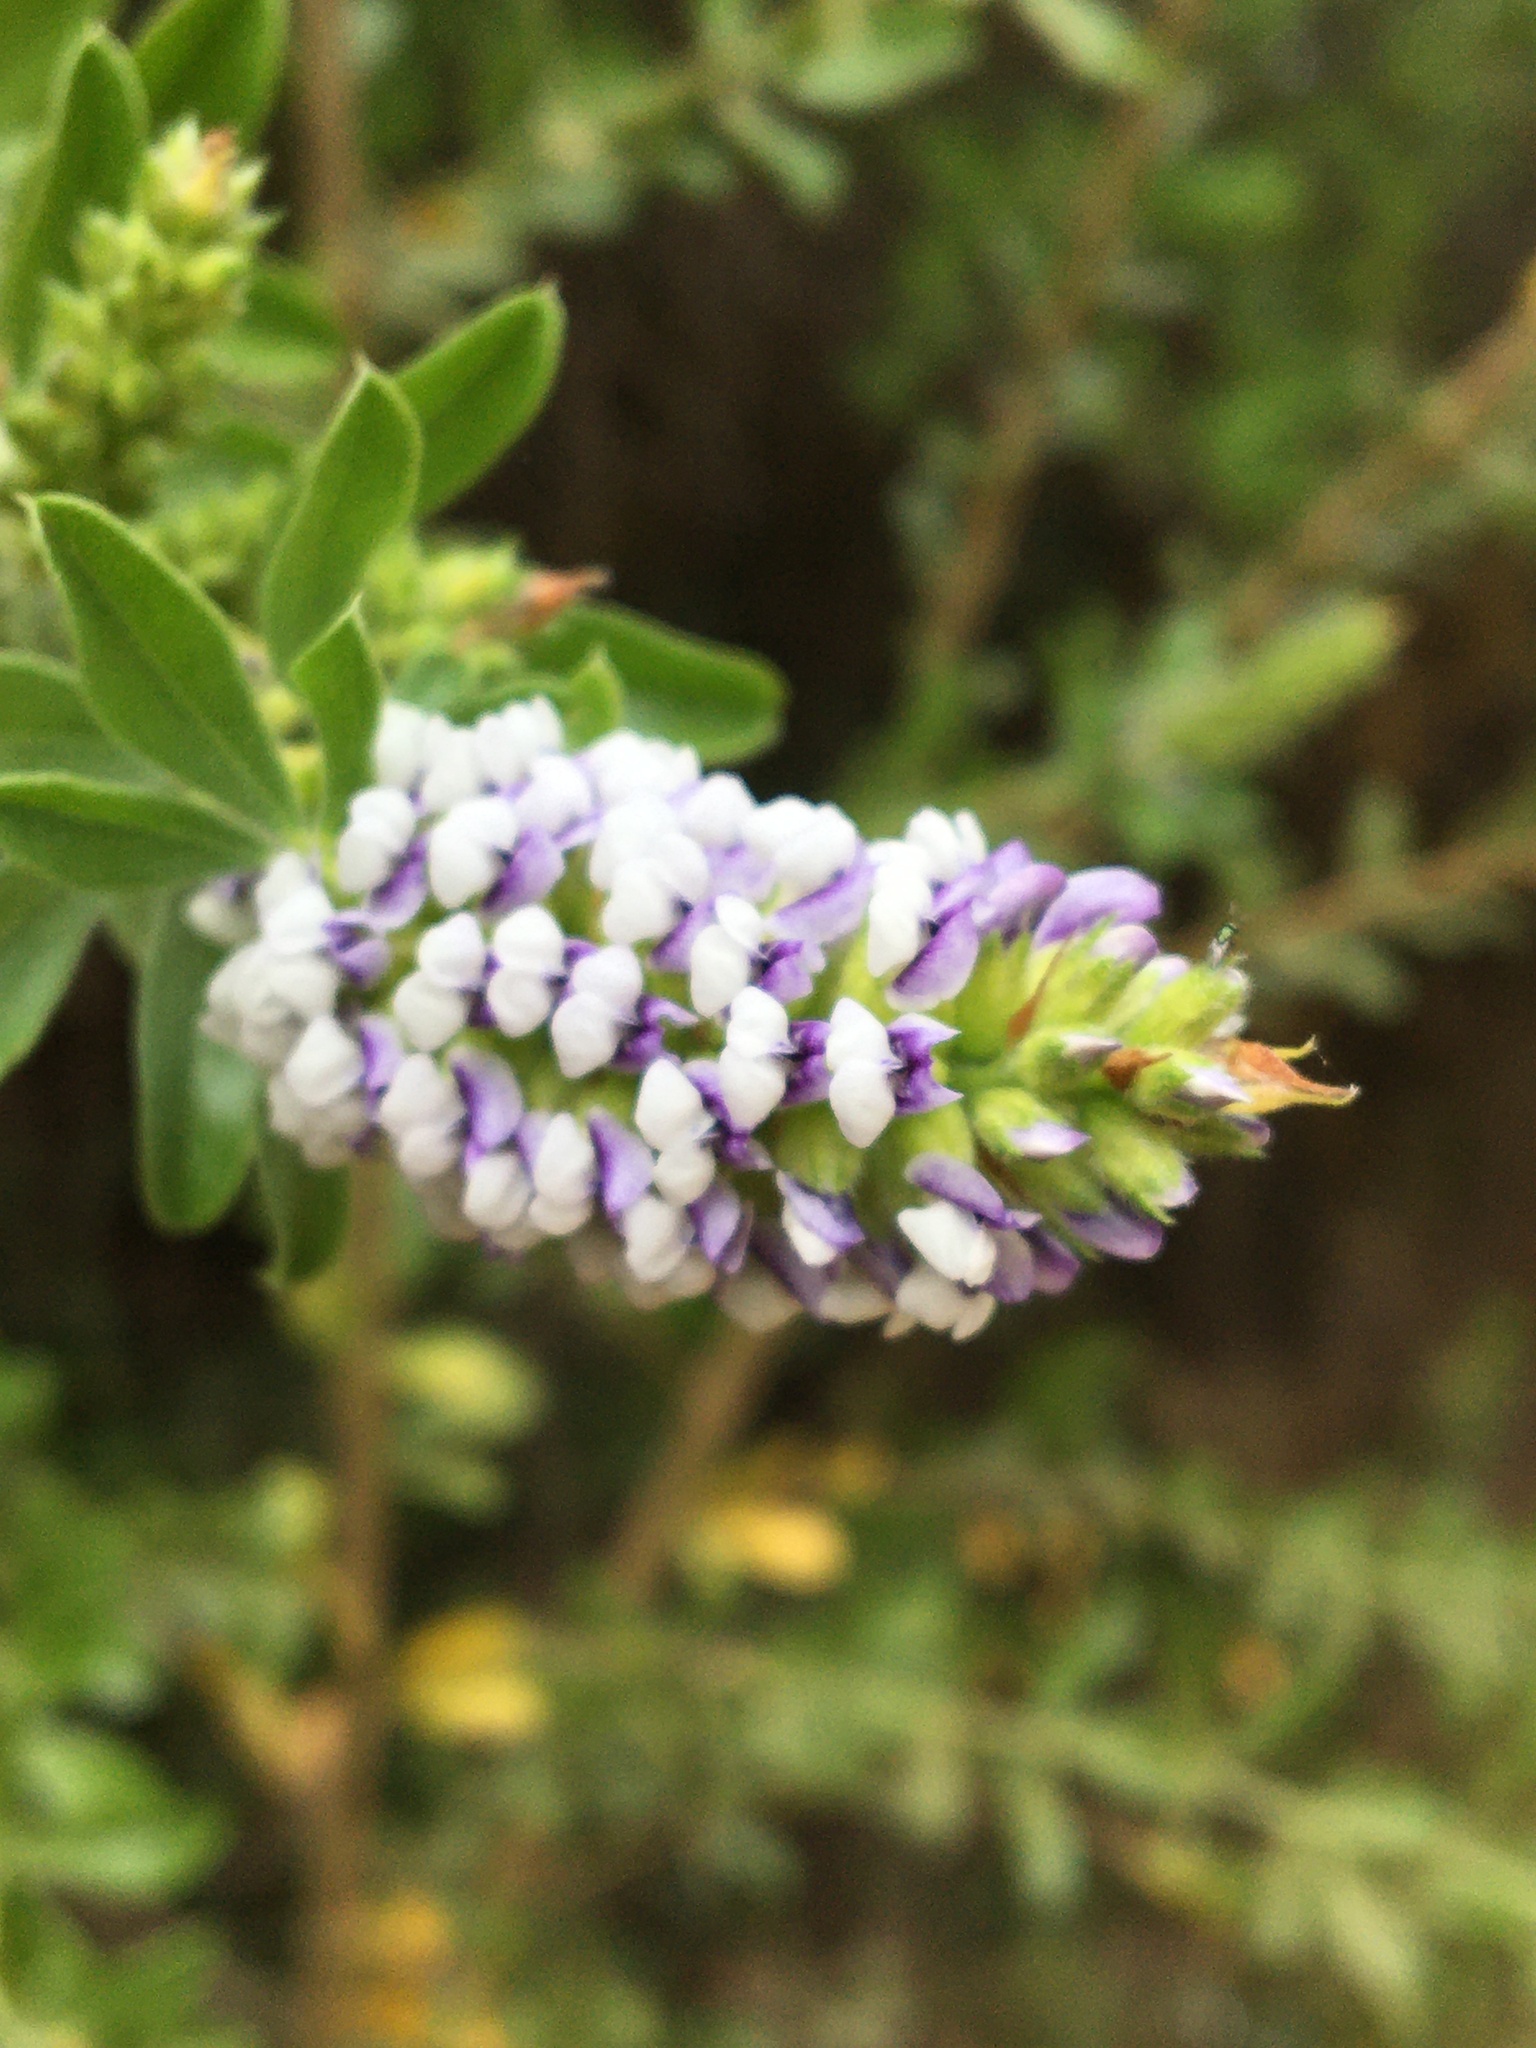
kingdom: Plantae
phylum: Tracheophyta
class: Magnoliopsida
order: Fabales
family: Fabaceae
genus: Psoralea
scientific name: Psoralea spicata
